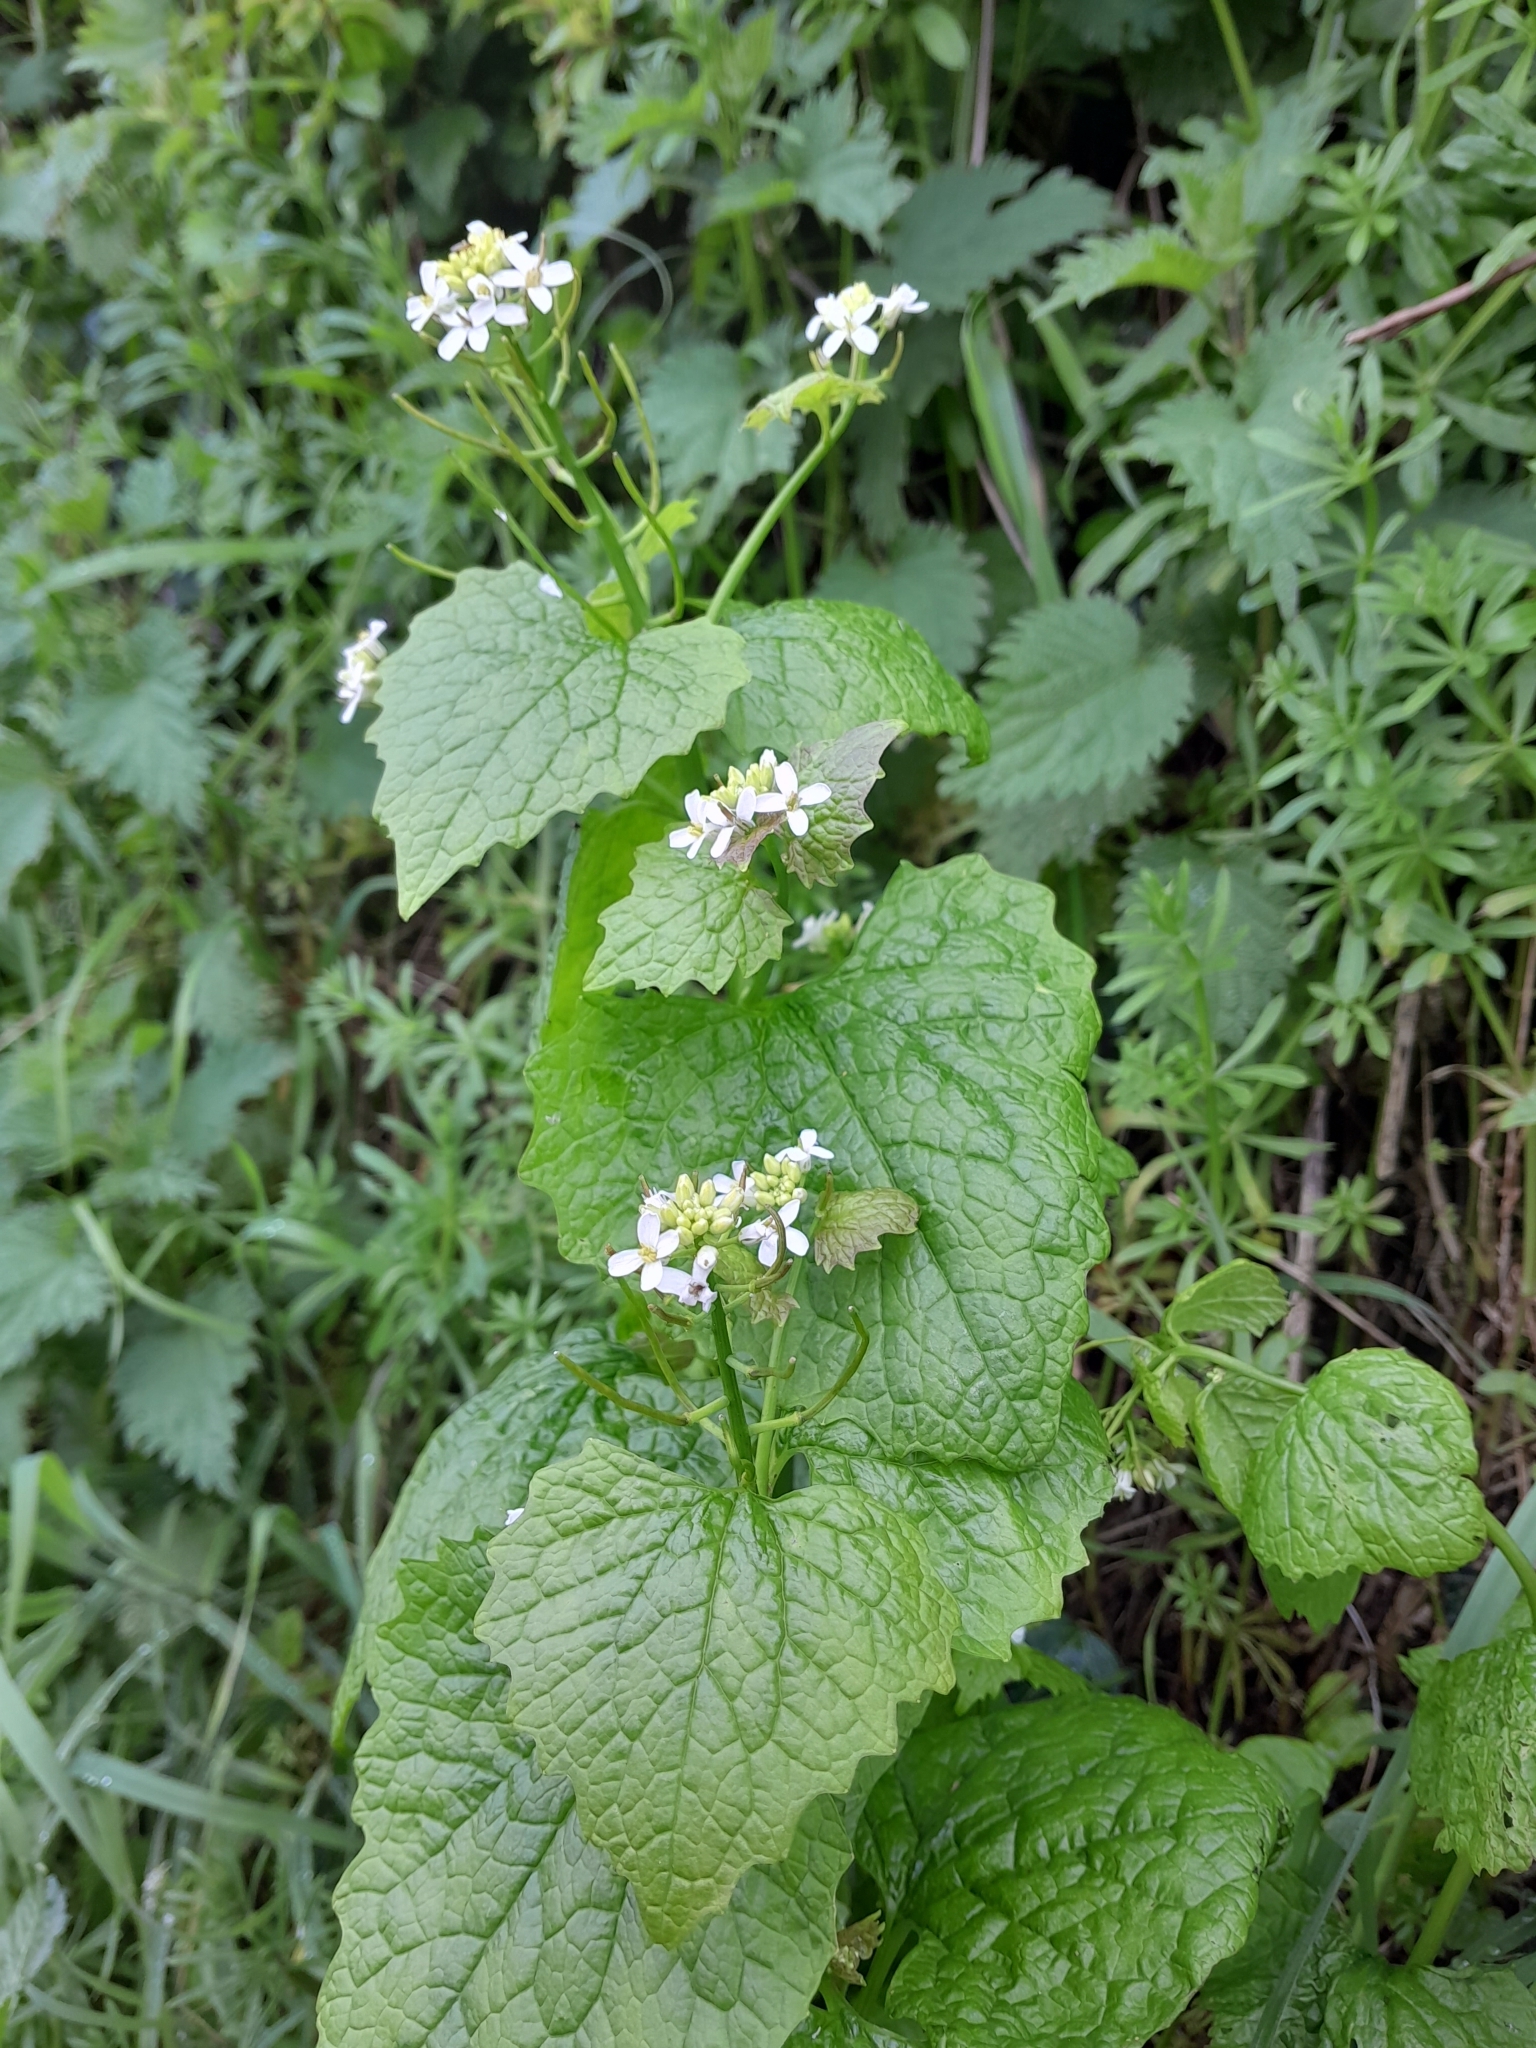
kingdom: Plantae
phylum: Tracheophyta
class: Magnoliopsida
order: Brassicales
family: Brassicaceae
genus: Alliaria
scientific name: Alliaria petiolata
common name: Garlic mustard
